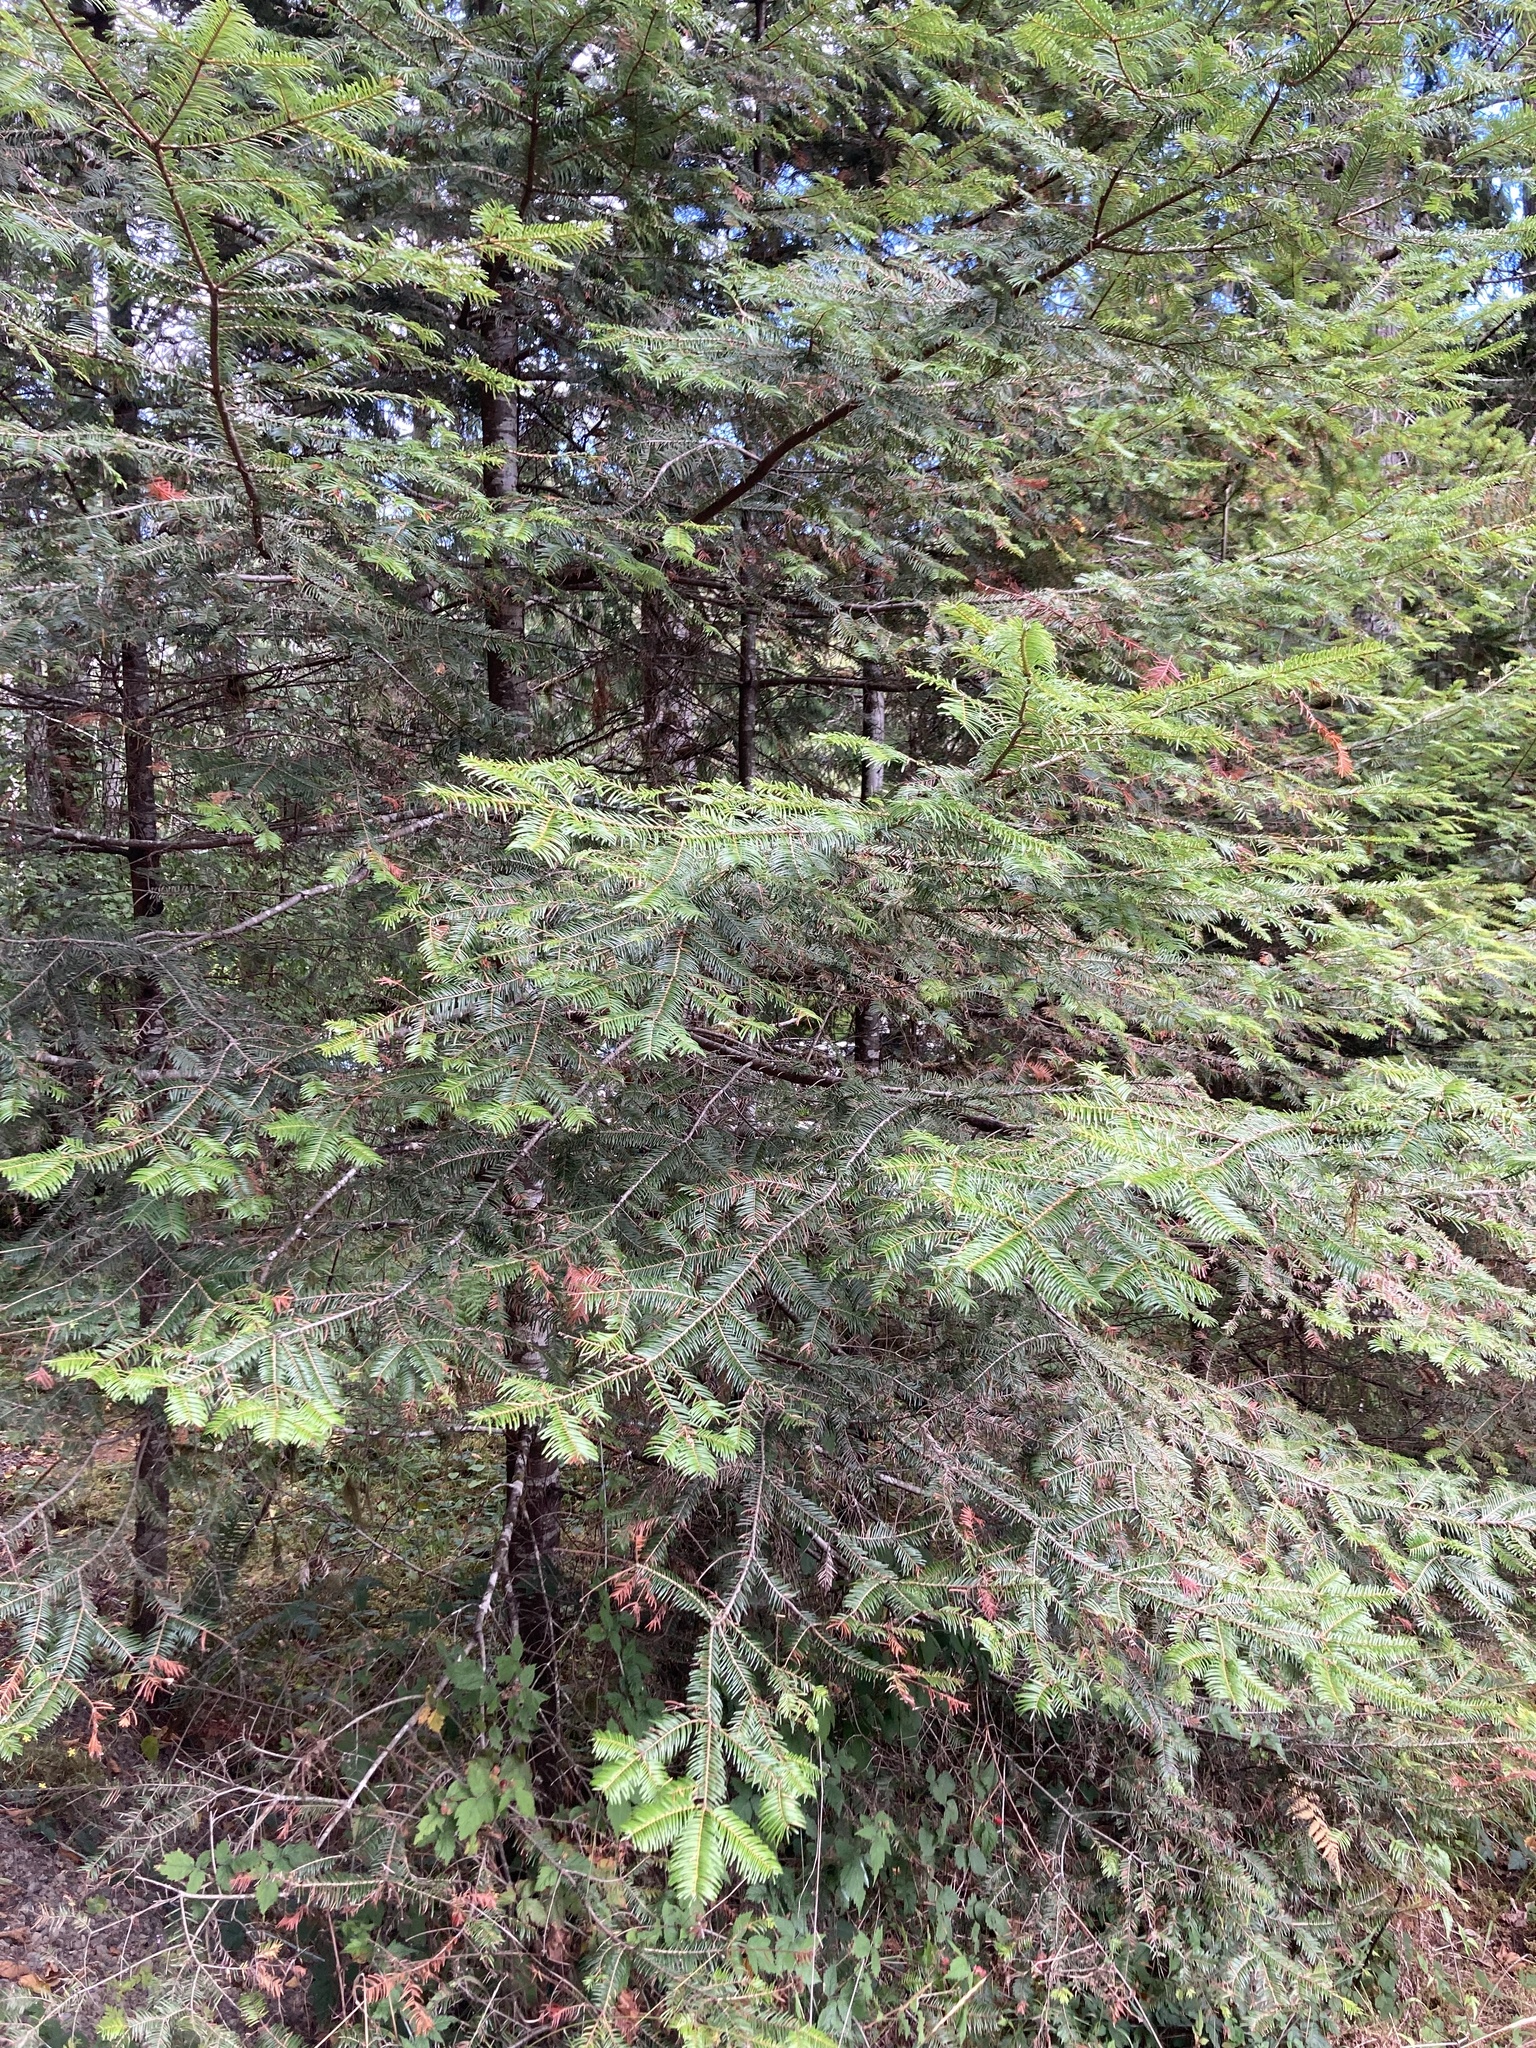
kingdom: Plantae
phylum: Tracheophyta
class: Pinopsida
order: Pinales
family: Pinaceae
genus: Abies
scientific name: Abies grandis
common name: Giant fir
